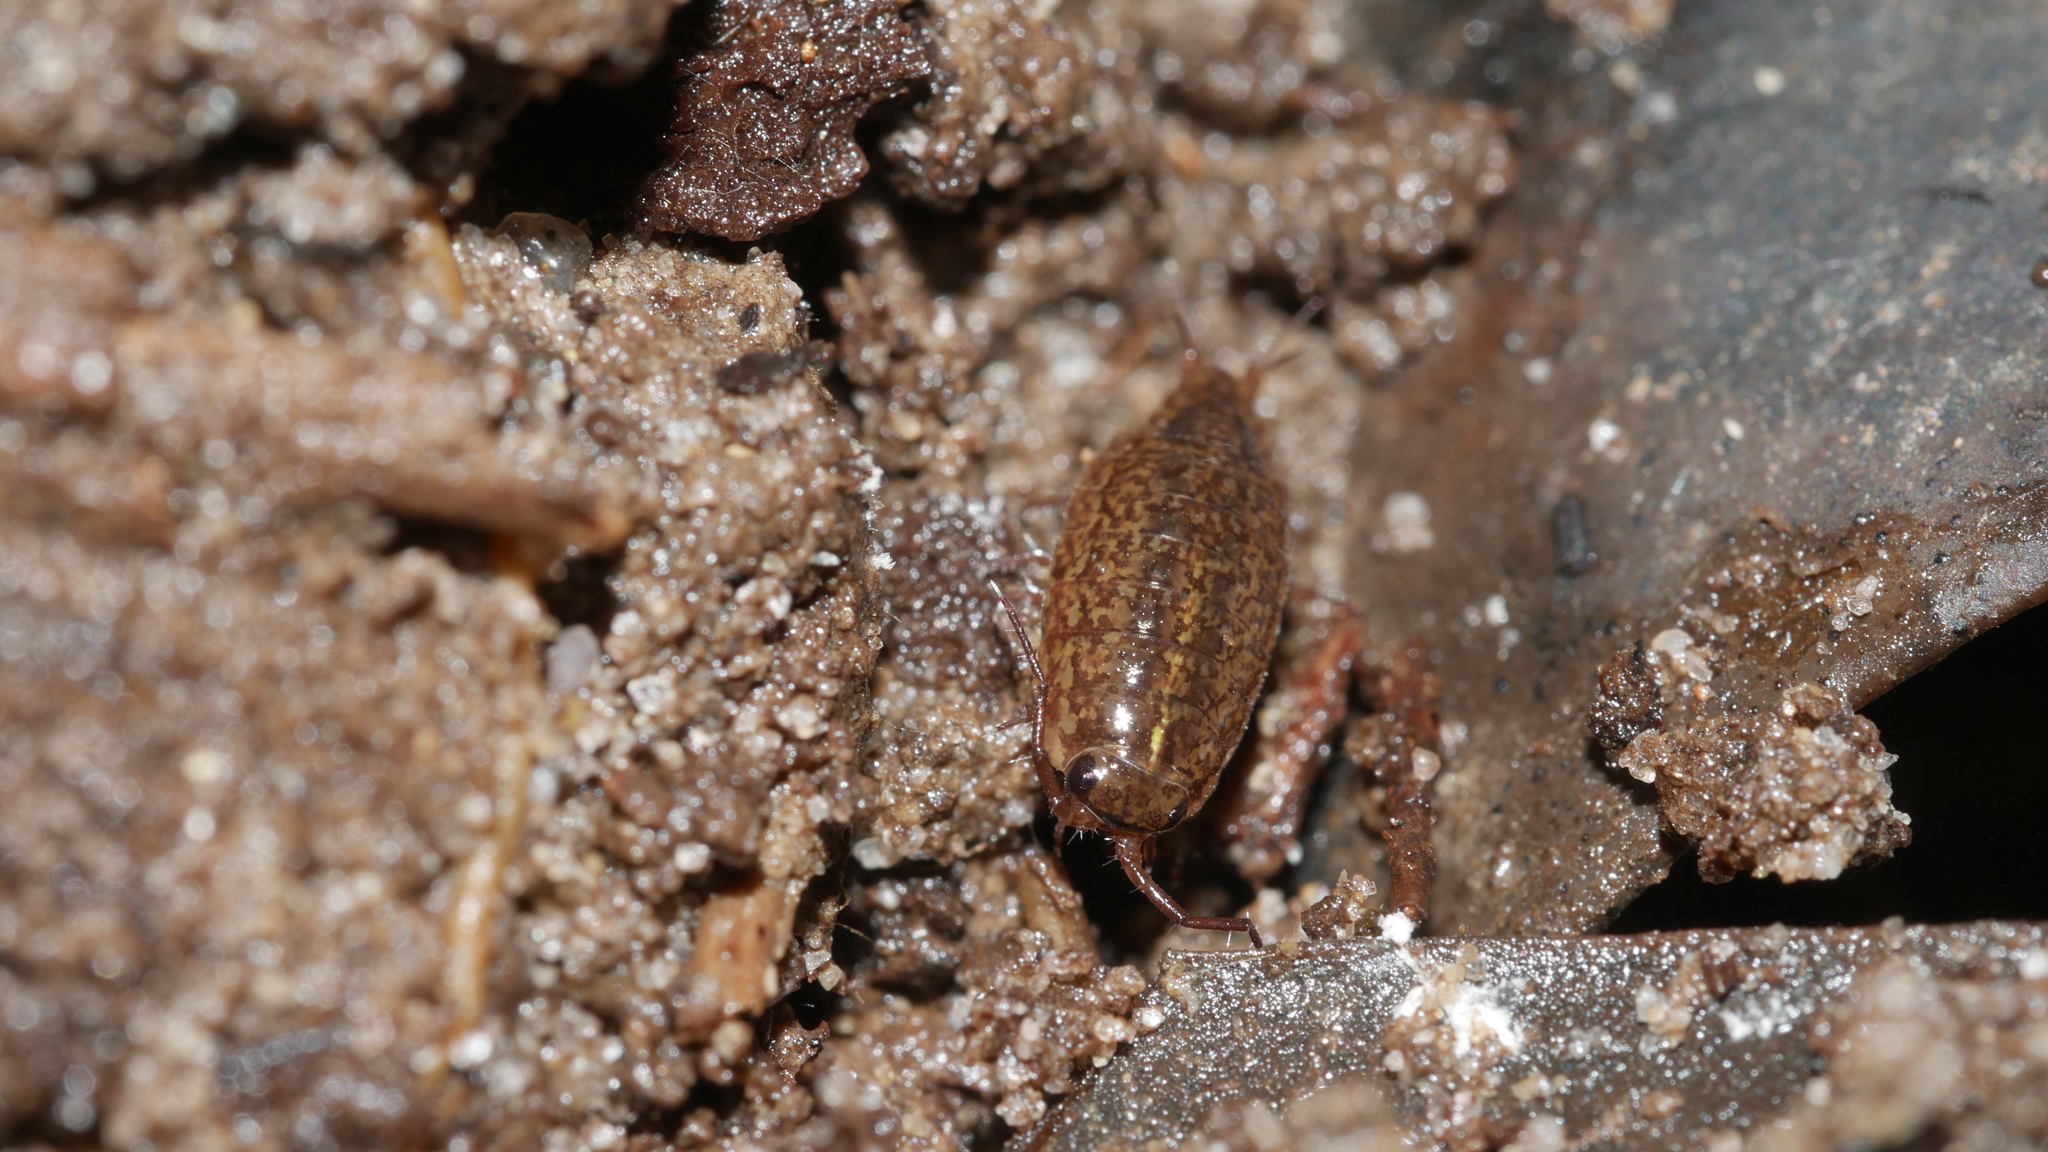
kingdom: Animalia
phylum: Arthropoda
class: Malacostraca
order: Isopoda
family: Ligiidae
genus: Ligidium
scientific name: Ligidium elrodii
